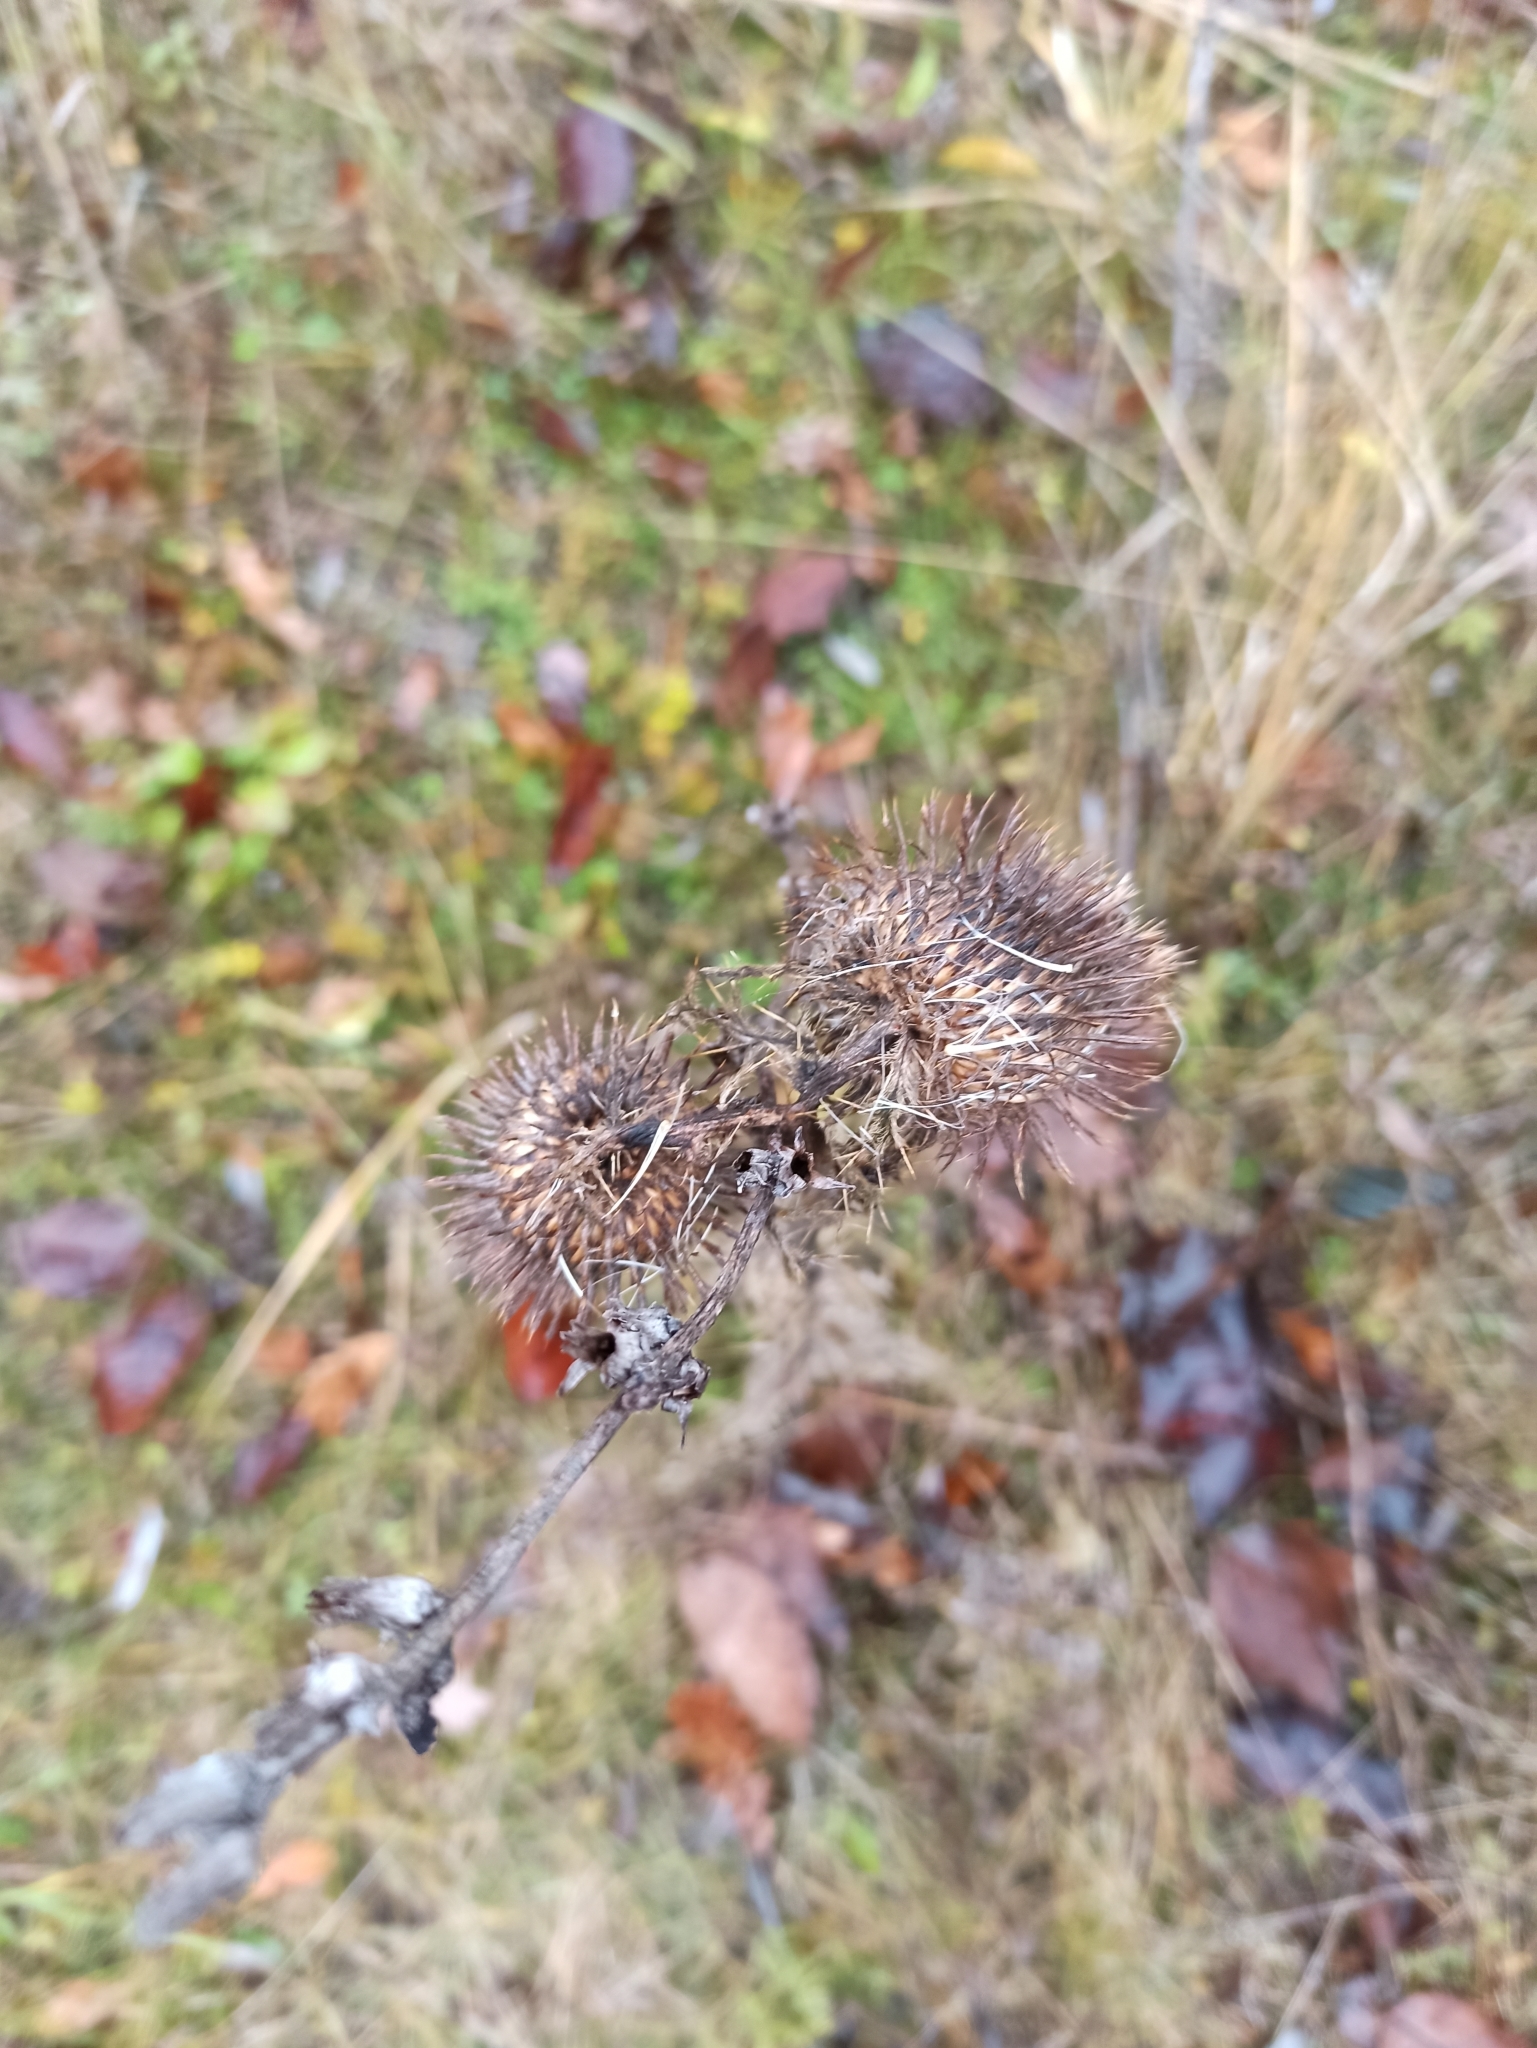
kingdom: Plantae
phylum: Tracheophyta
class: Magnoliopsida
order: Asterales
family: Asteraceae
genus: Cirsium
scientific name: Cirsium vulgare
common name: Bull thistle
